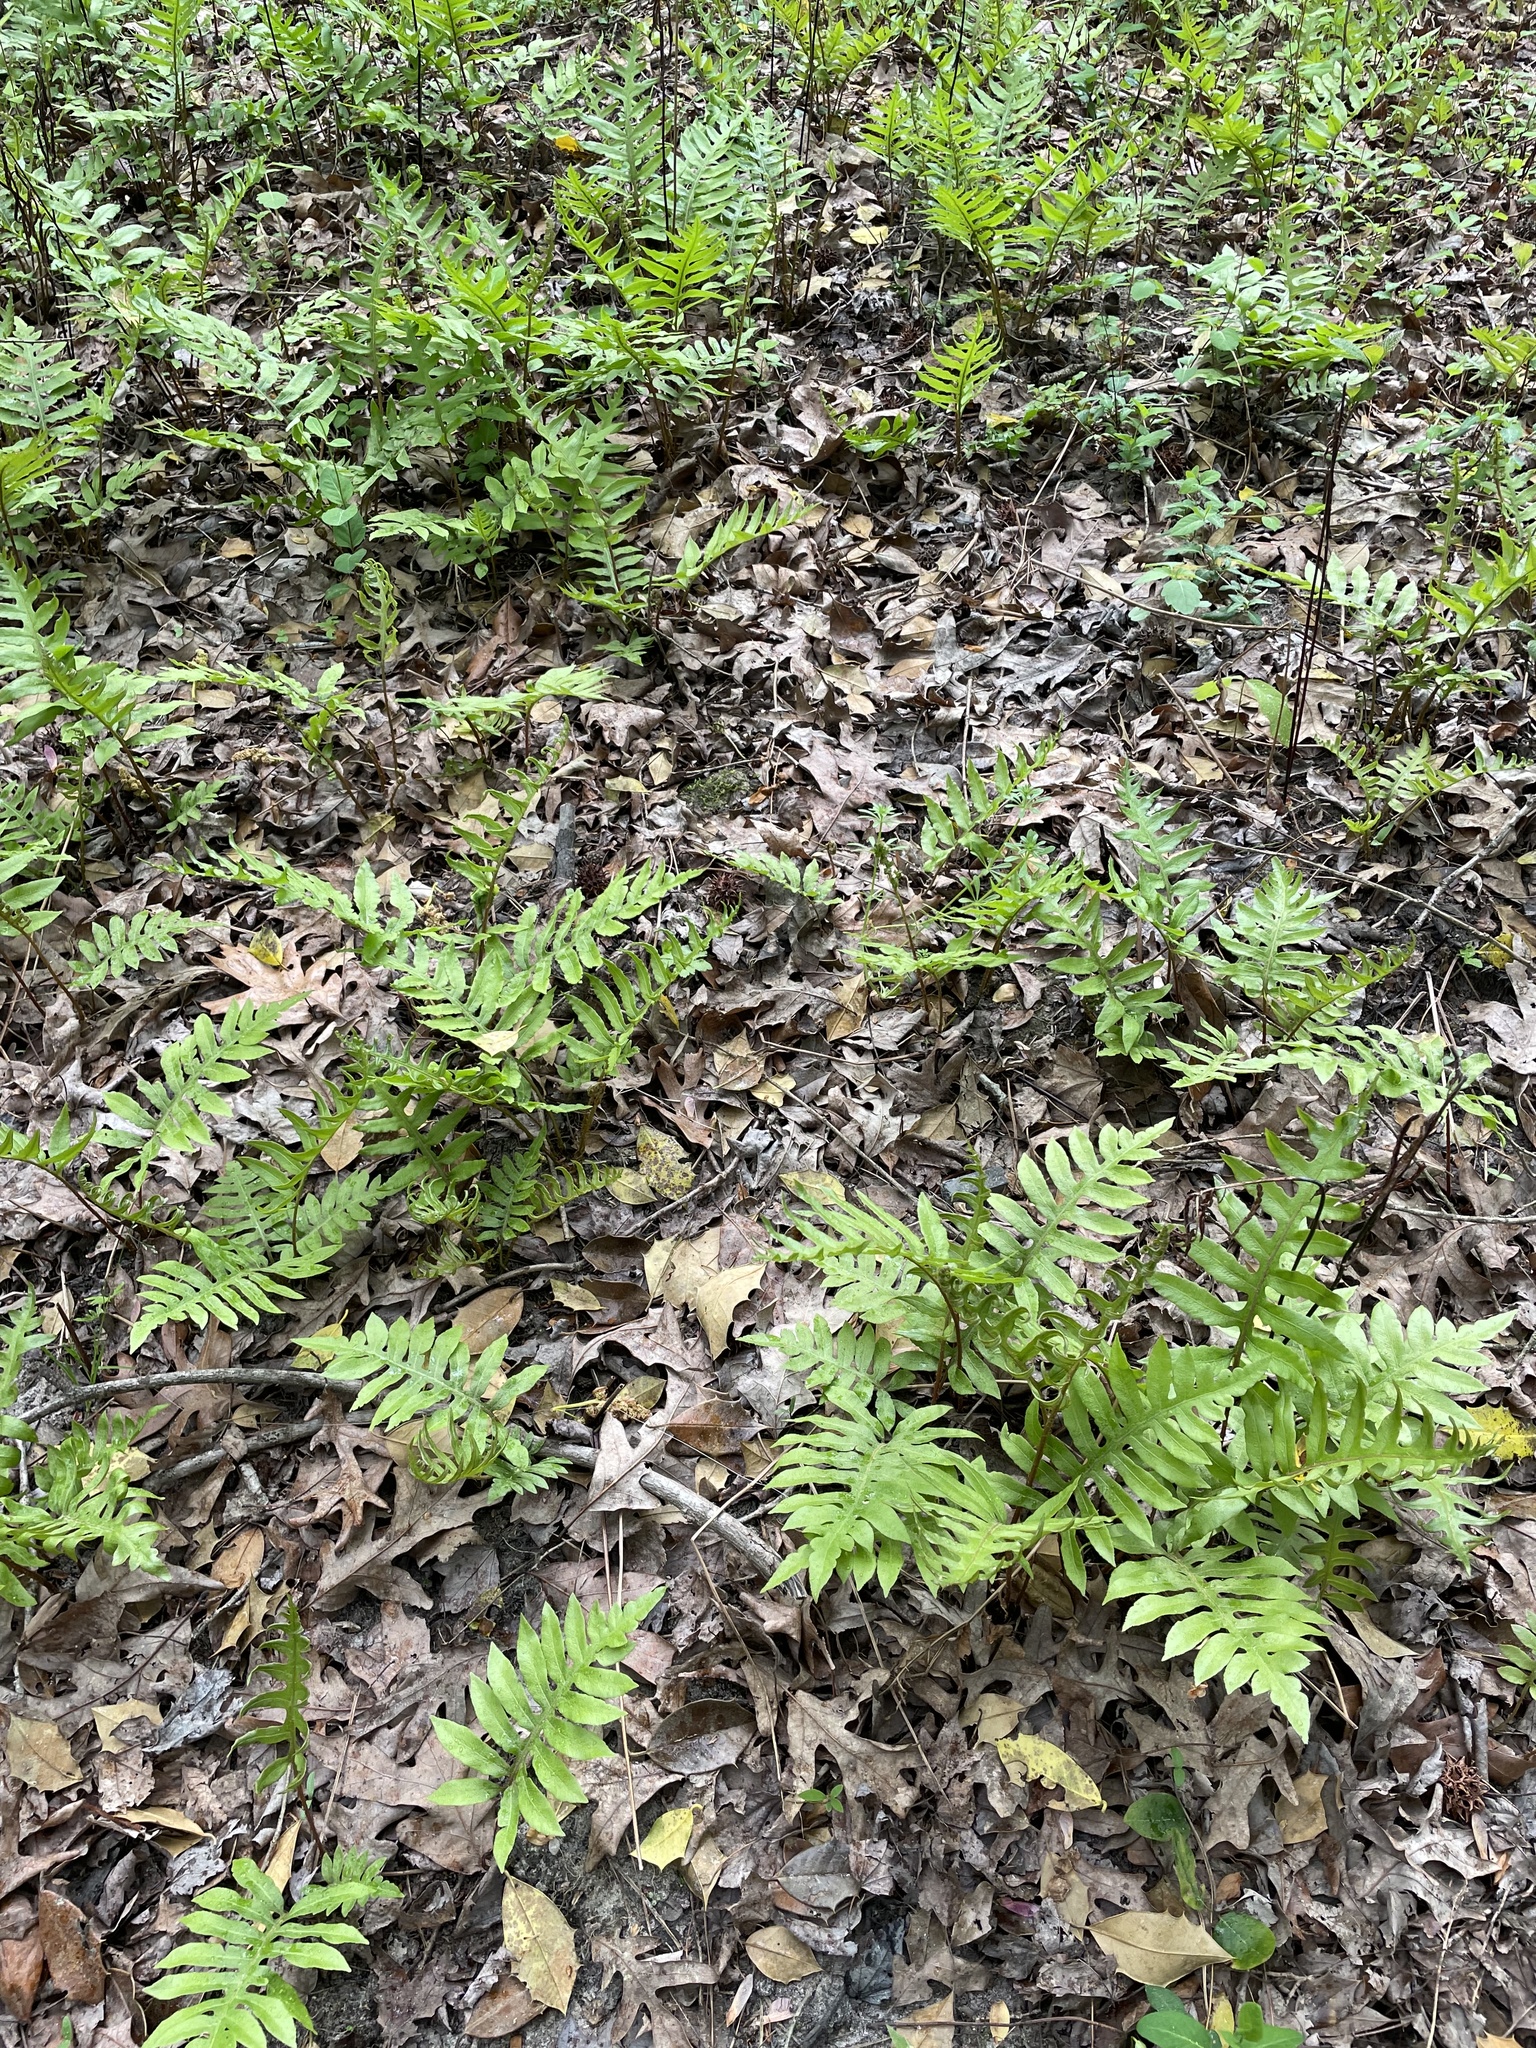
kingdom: Plantae
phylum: Tracheophyta
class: Polypodiopsida
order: Polypodiales
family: Blechnaceae
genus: Lorinseria
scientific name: Lorinseria areolata
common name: Dwarf chain fern
